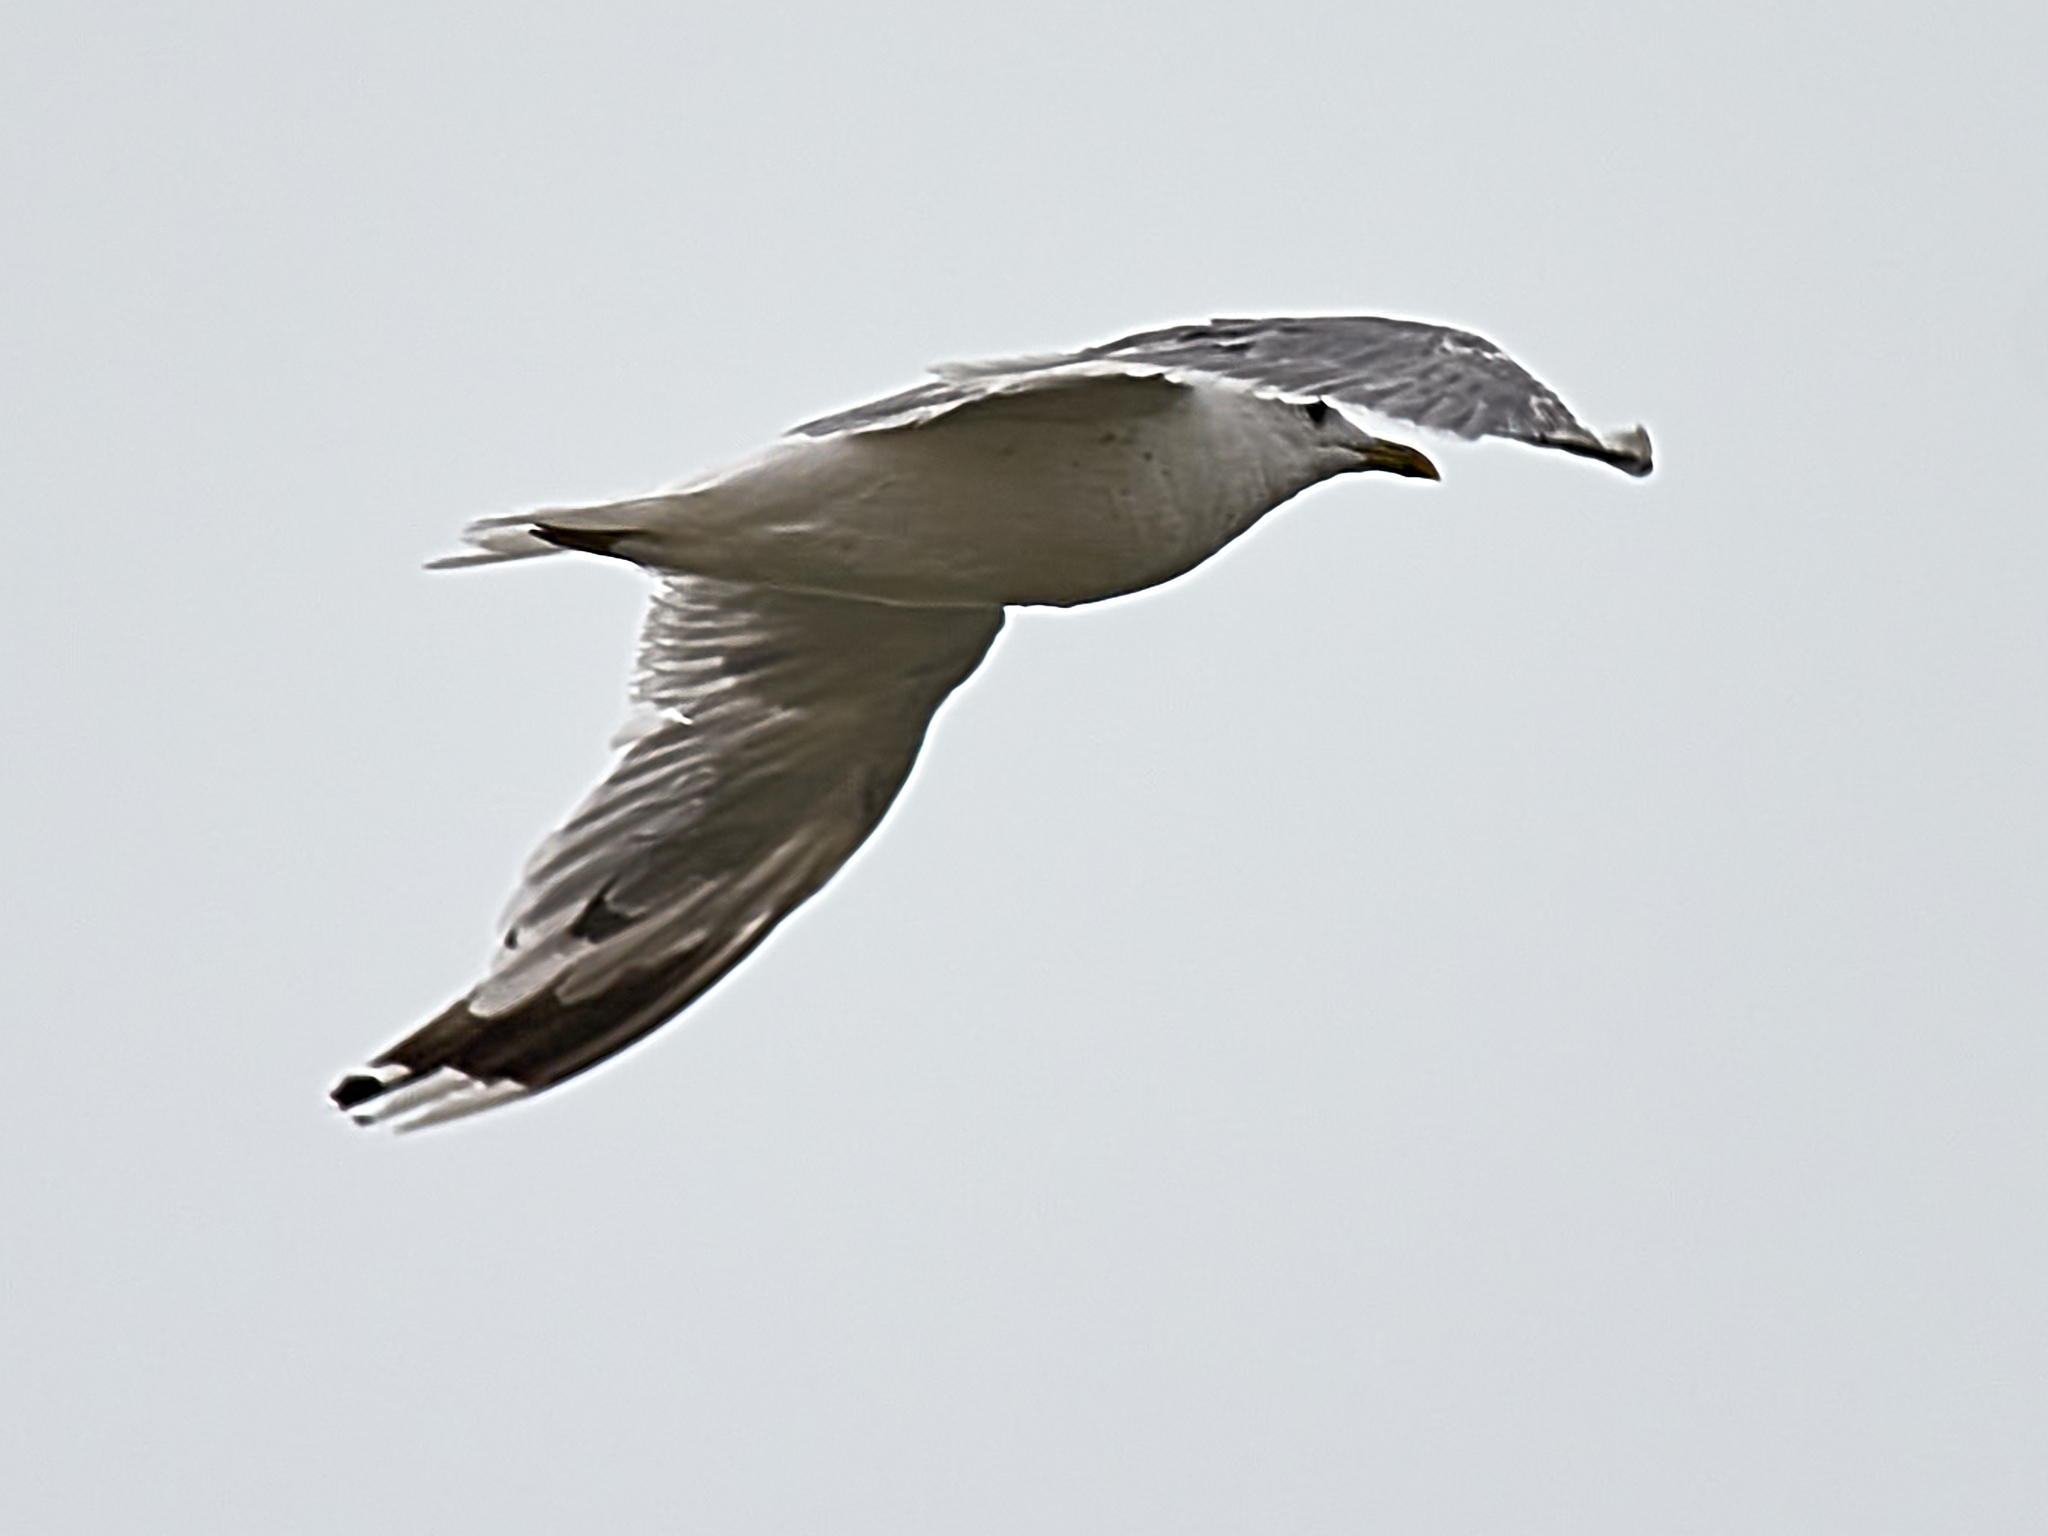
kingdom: Animalia
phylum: Chordata
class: Aves
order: Charadriiformes
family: Laridae
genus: Larus
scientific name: Larus cachinnans
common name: Caspian gull
